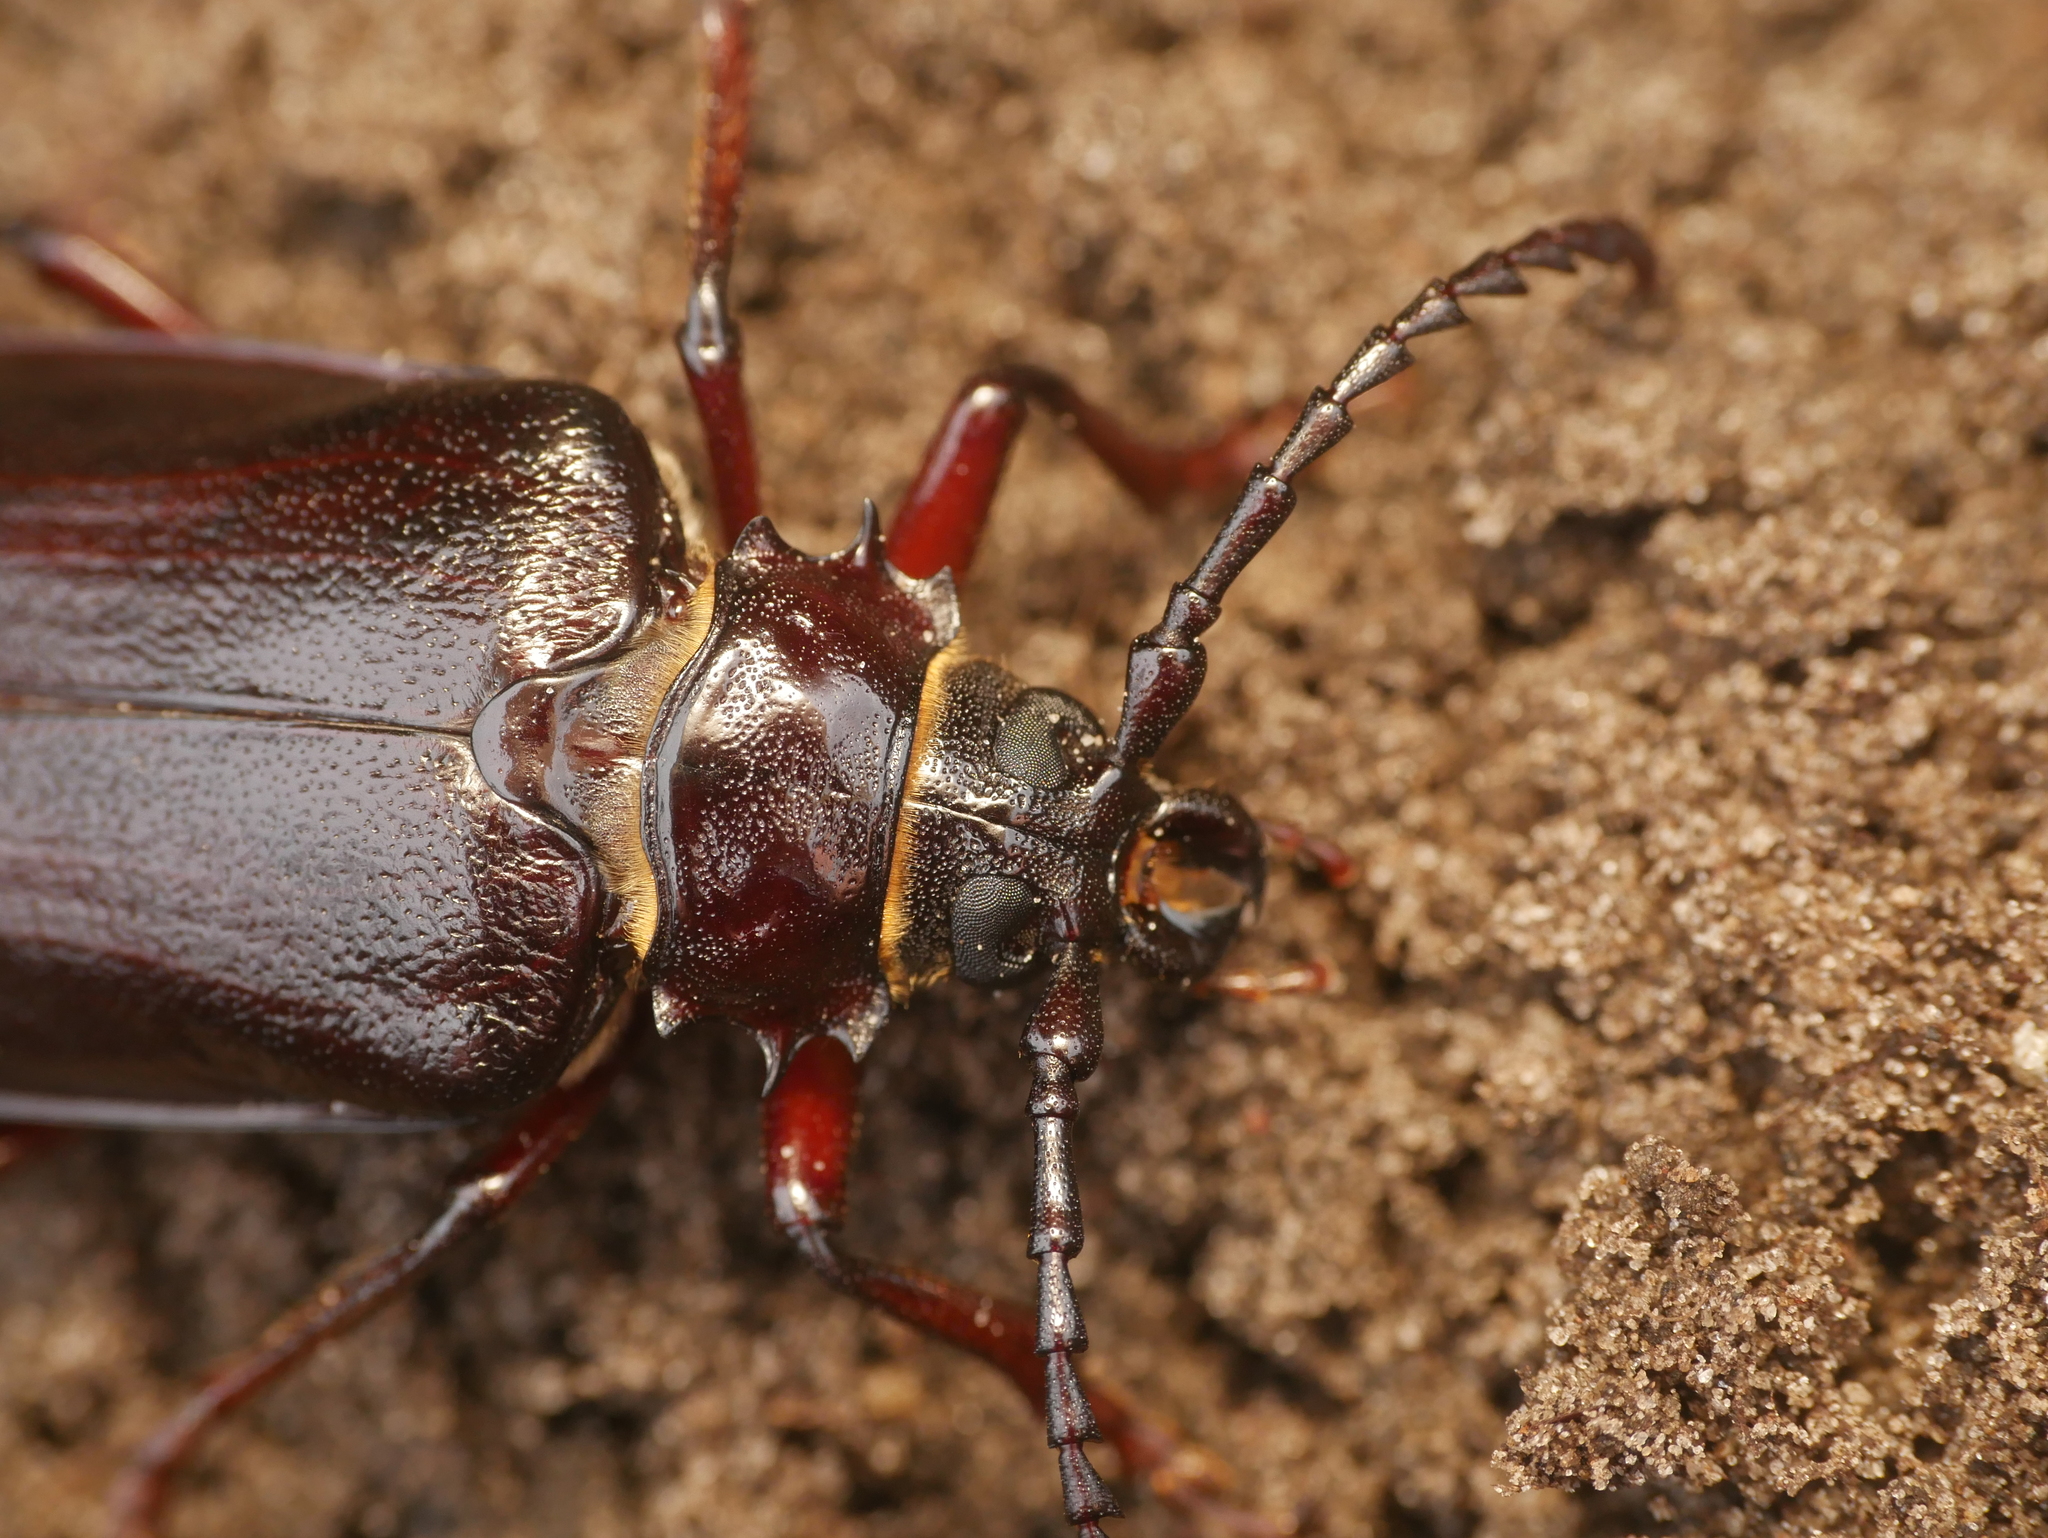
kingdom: Animalia
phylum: Arthropoda
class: Insecta
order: Coleoptera
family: Cerambycidae
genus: Prionus
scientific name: Prionus coriarius
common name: Tanner beetle
